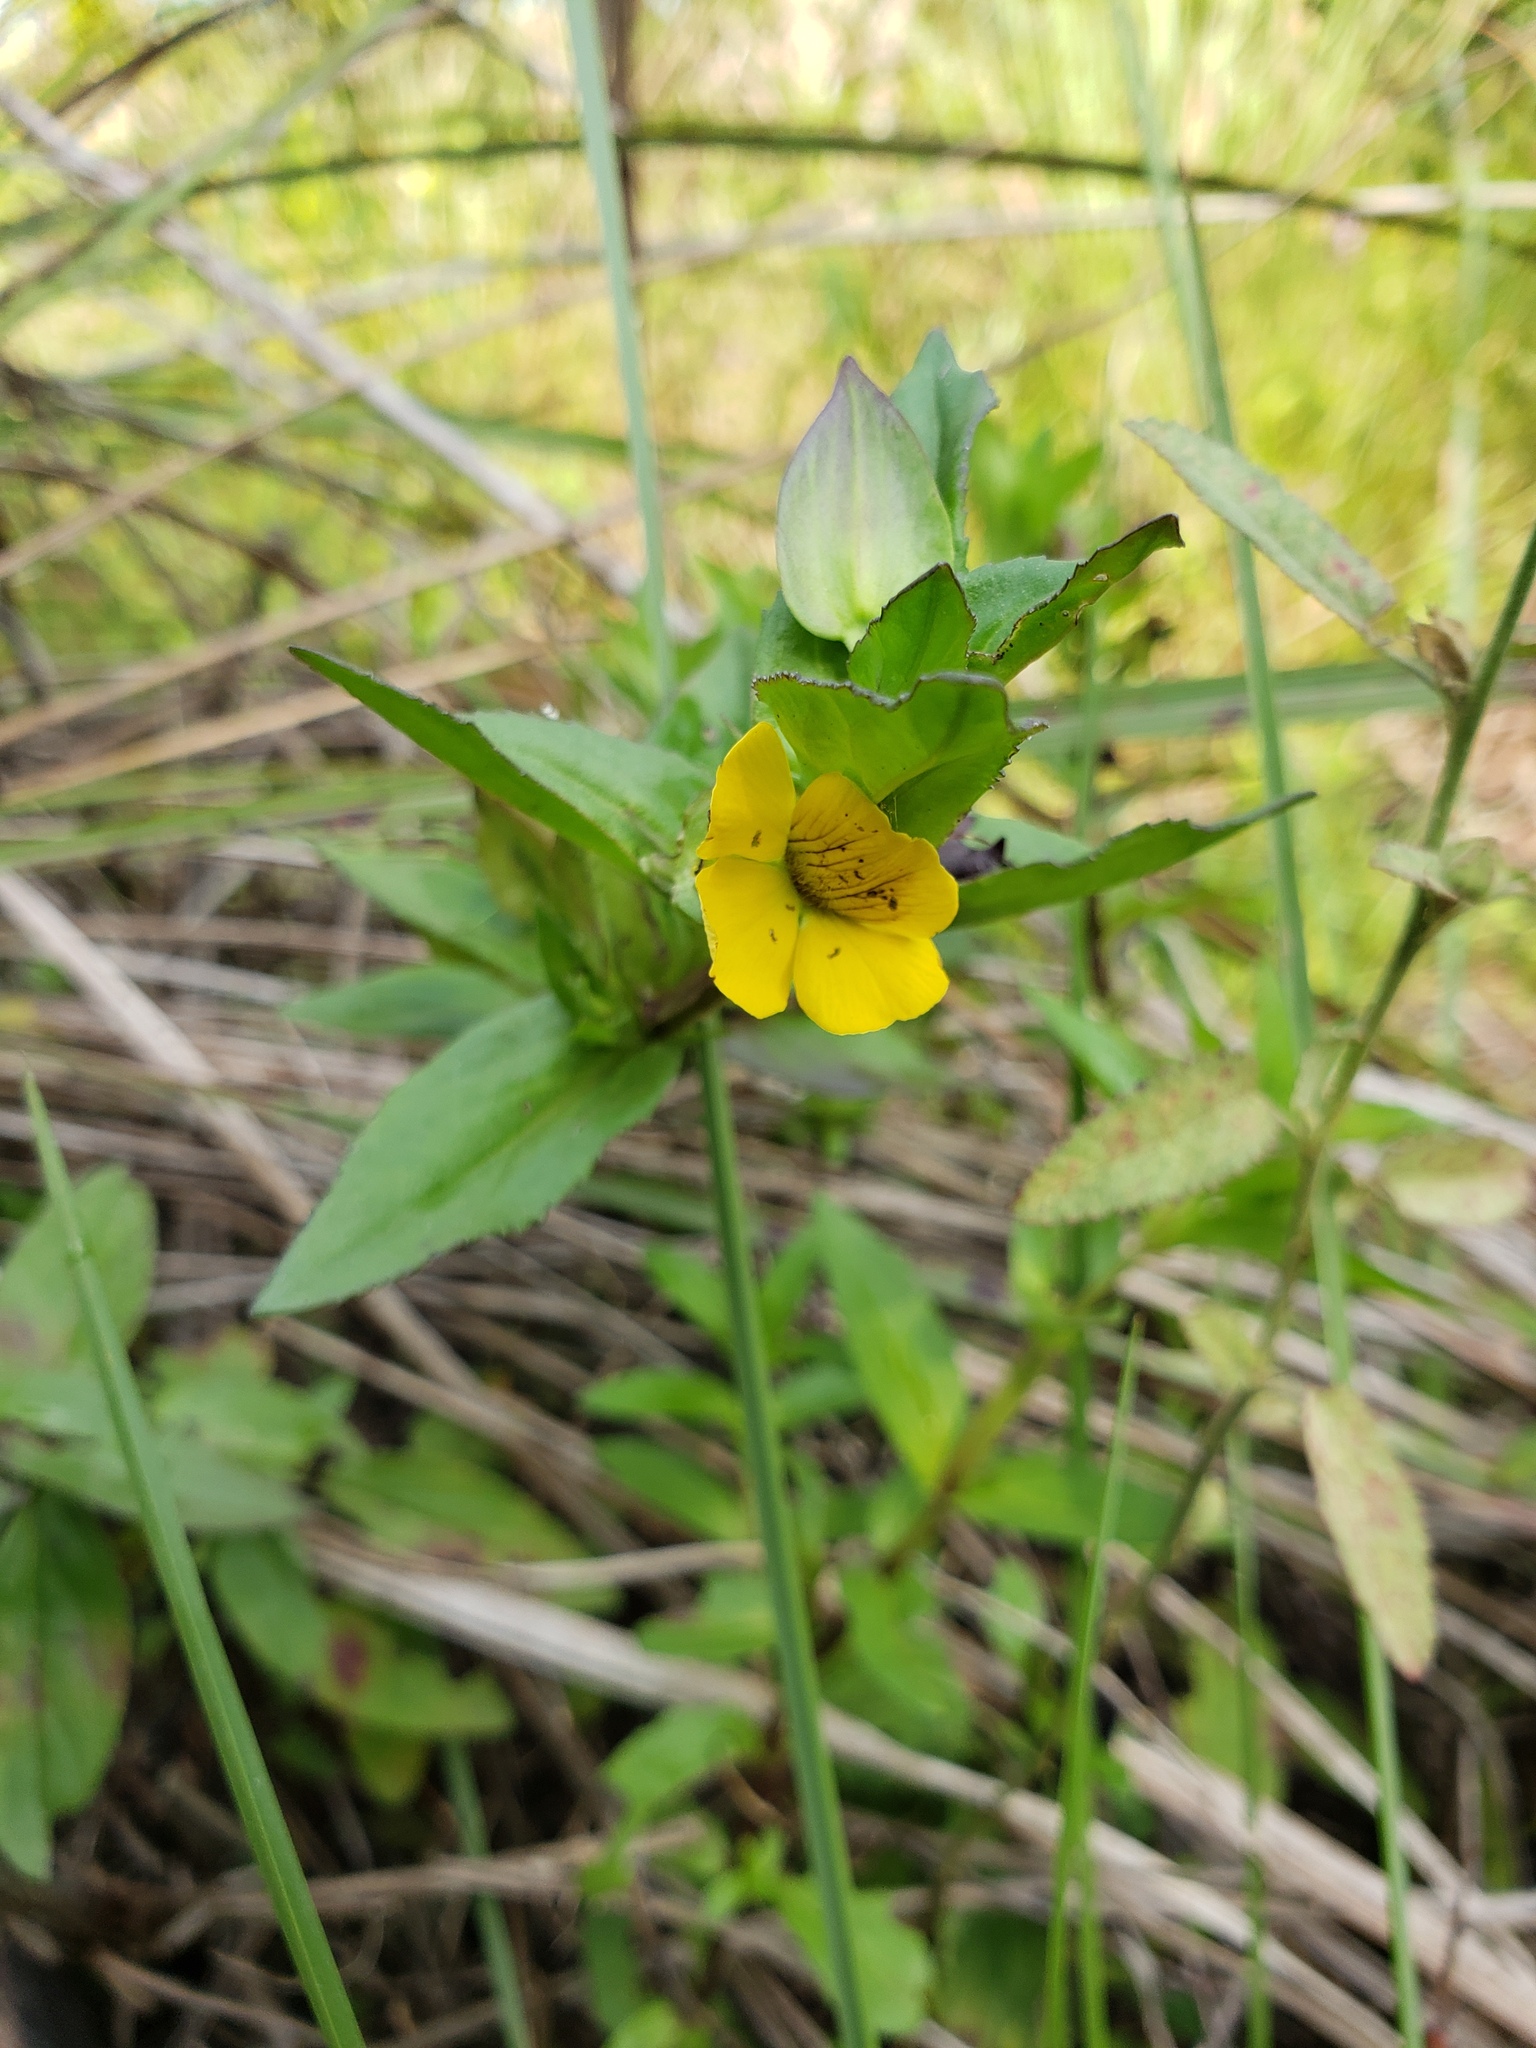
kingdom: Plantae
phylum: Tracheophyta
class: Magnoliopsida
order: Lamiales
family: Plantaginaceae
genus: Mecardonia
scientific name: Mecardonia grandiflora
